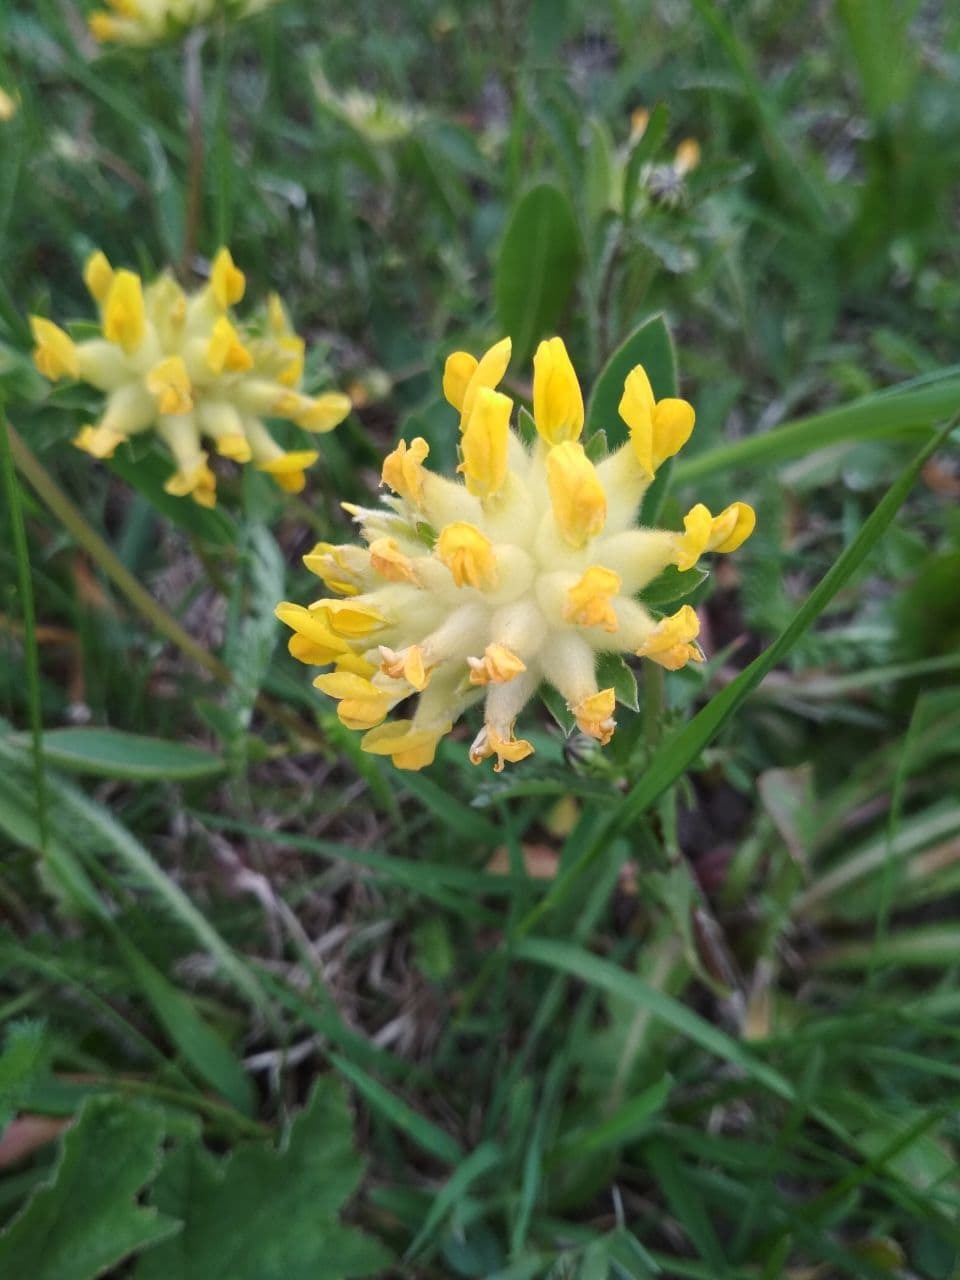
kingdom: Plantae
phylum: Tracheophyta
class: Magnoliopsida
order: Fabales
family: Fabaceae
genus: Anthyllis
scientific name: Anthyllis vulneraria
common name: Kidney vetch
